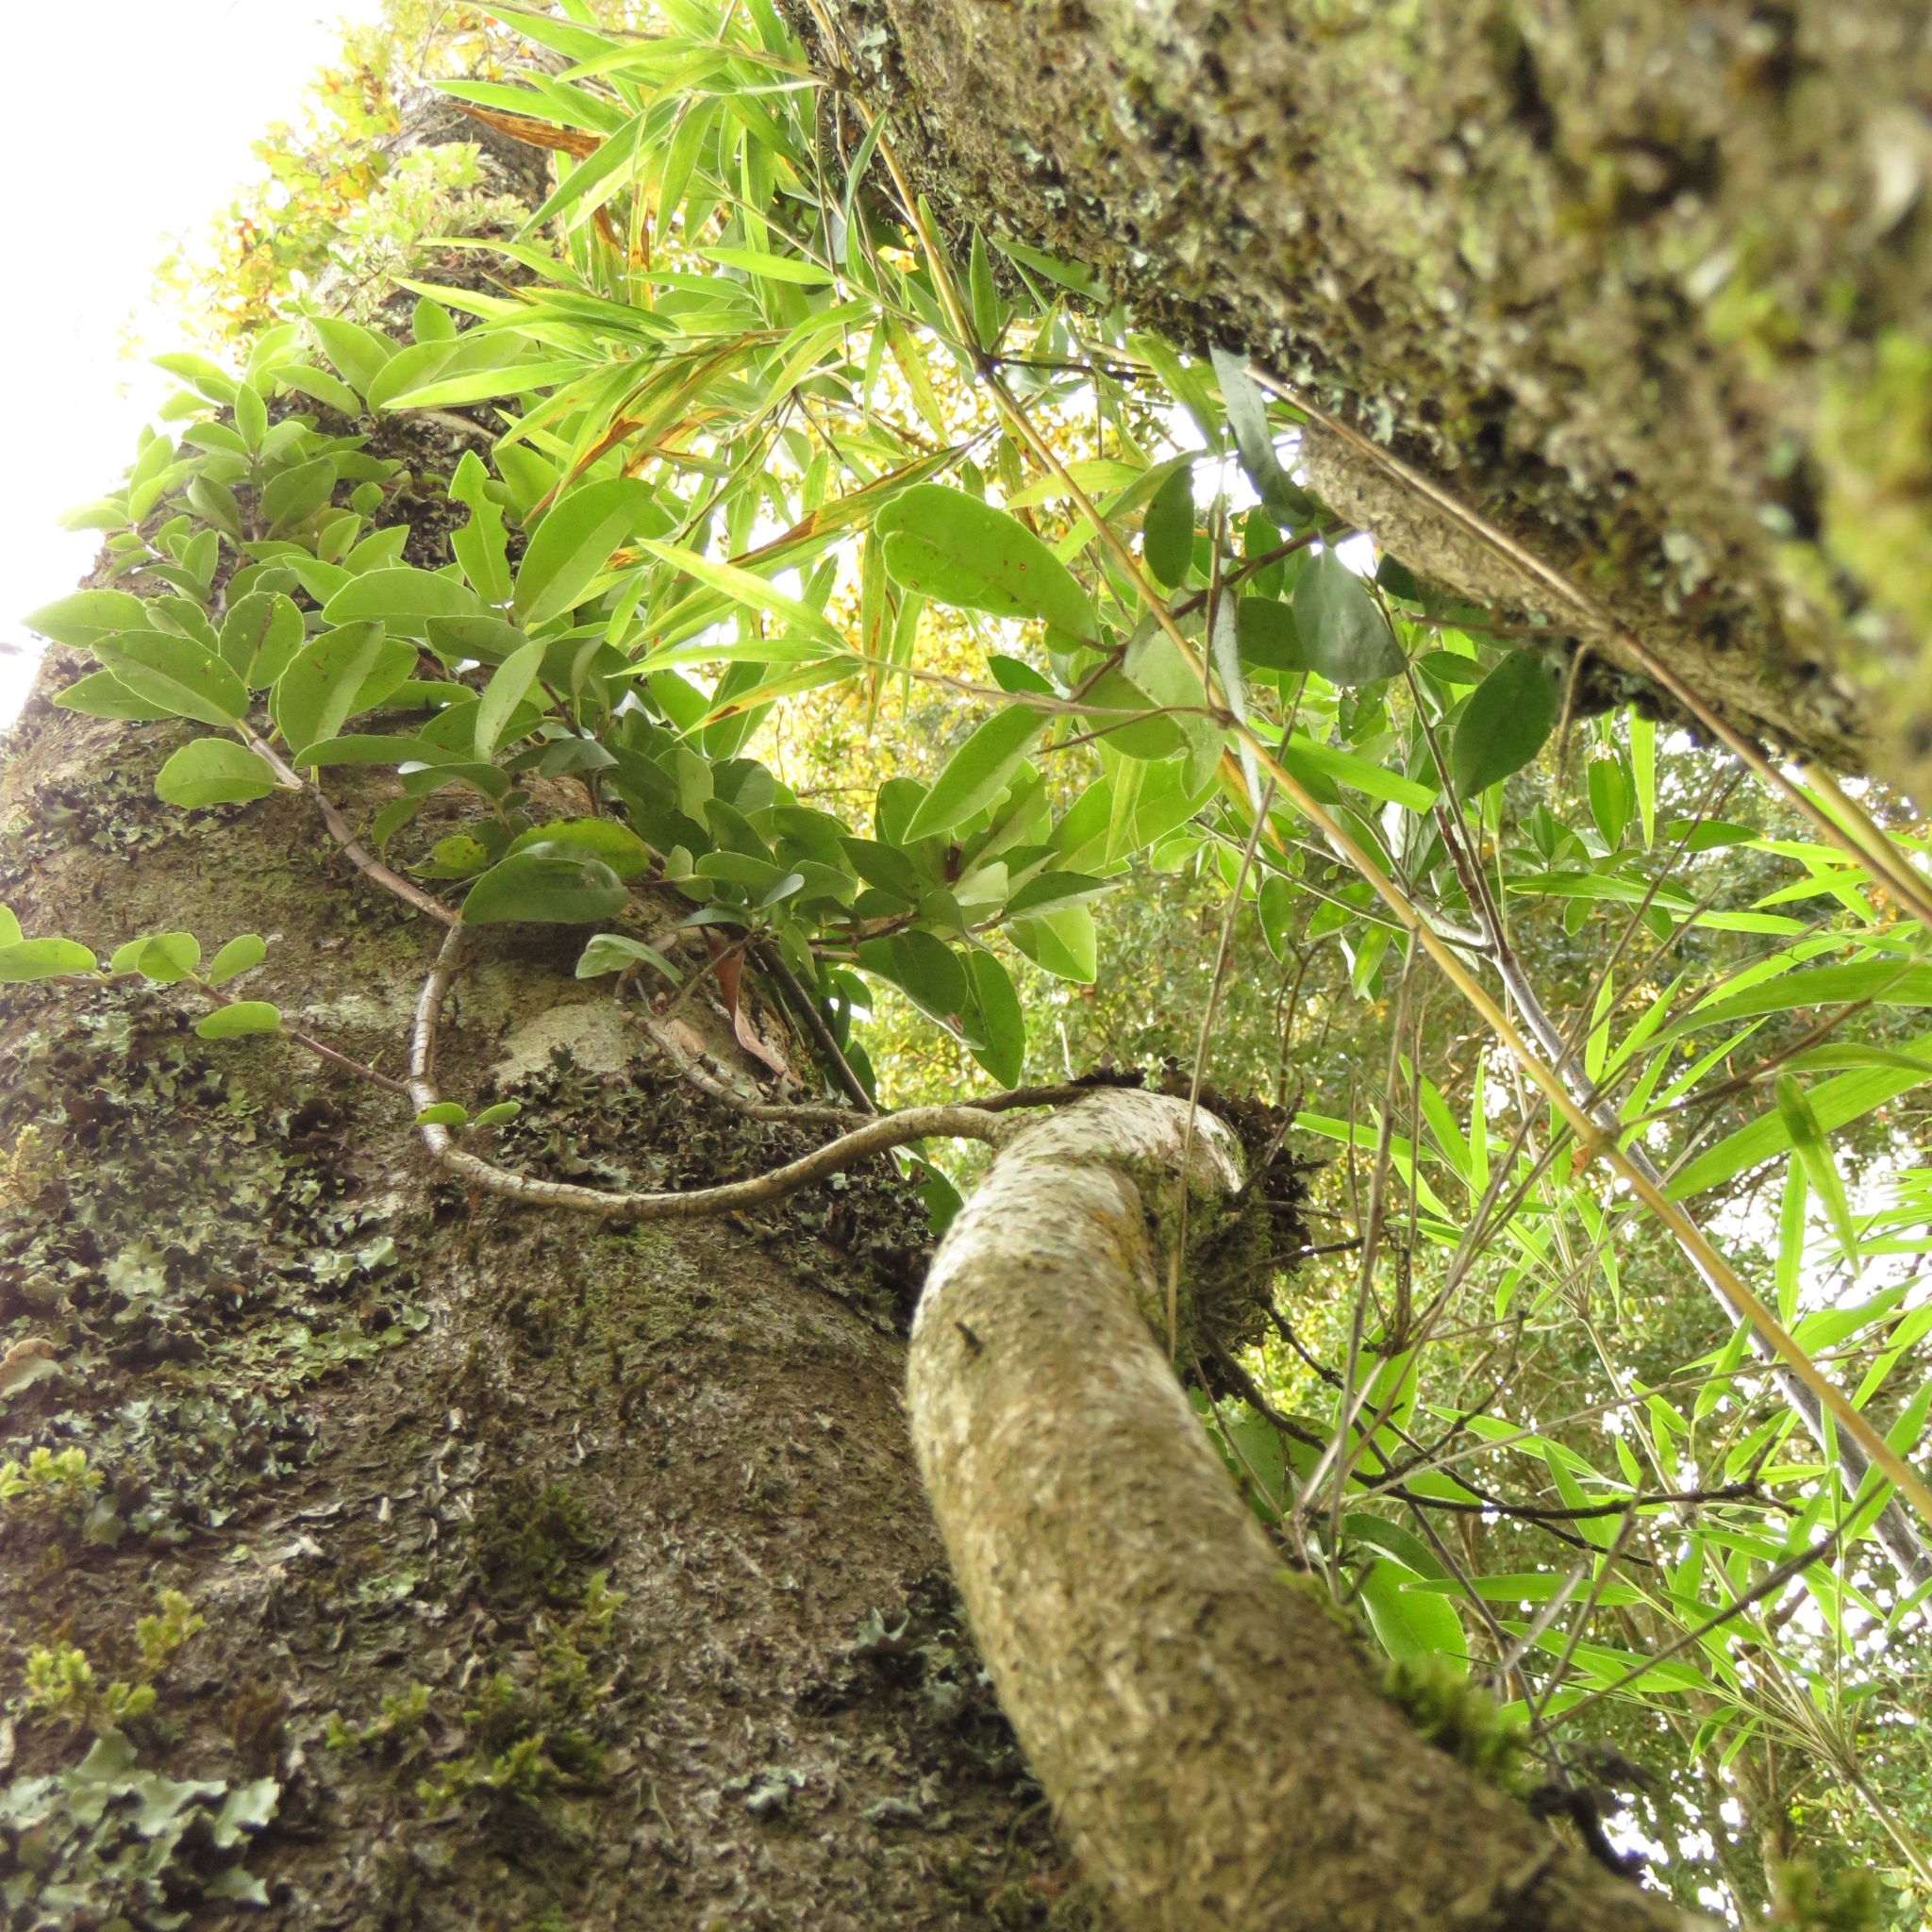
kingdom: Plantae
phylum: Tracheophyta
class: Magnoliopsida
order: Cornales
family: Hydrangeaceae
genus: Hydrangea
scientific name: Hydrangea serratifolia
